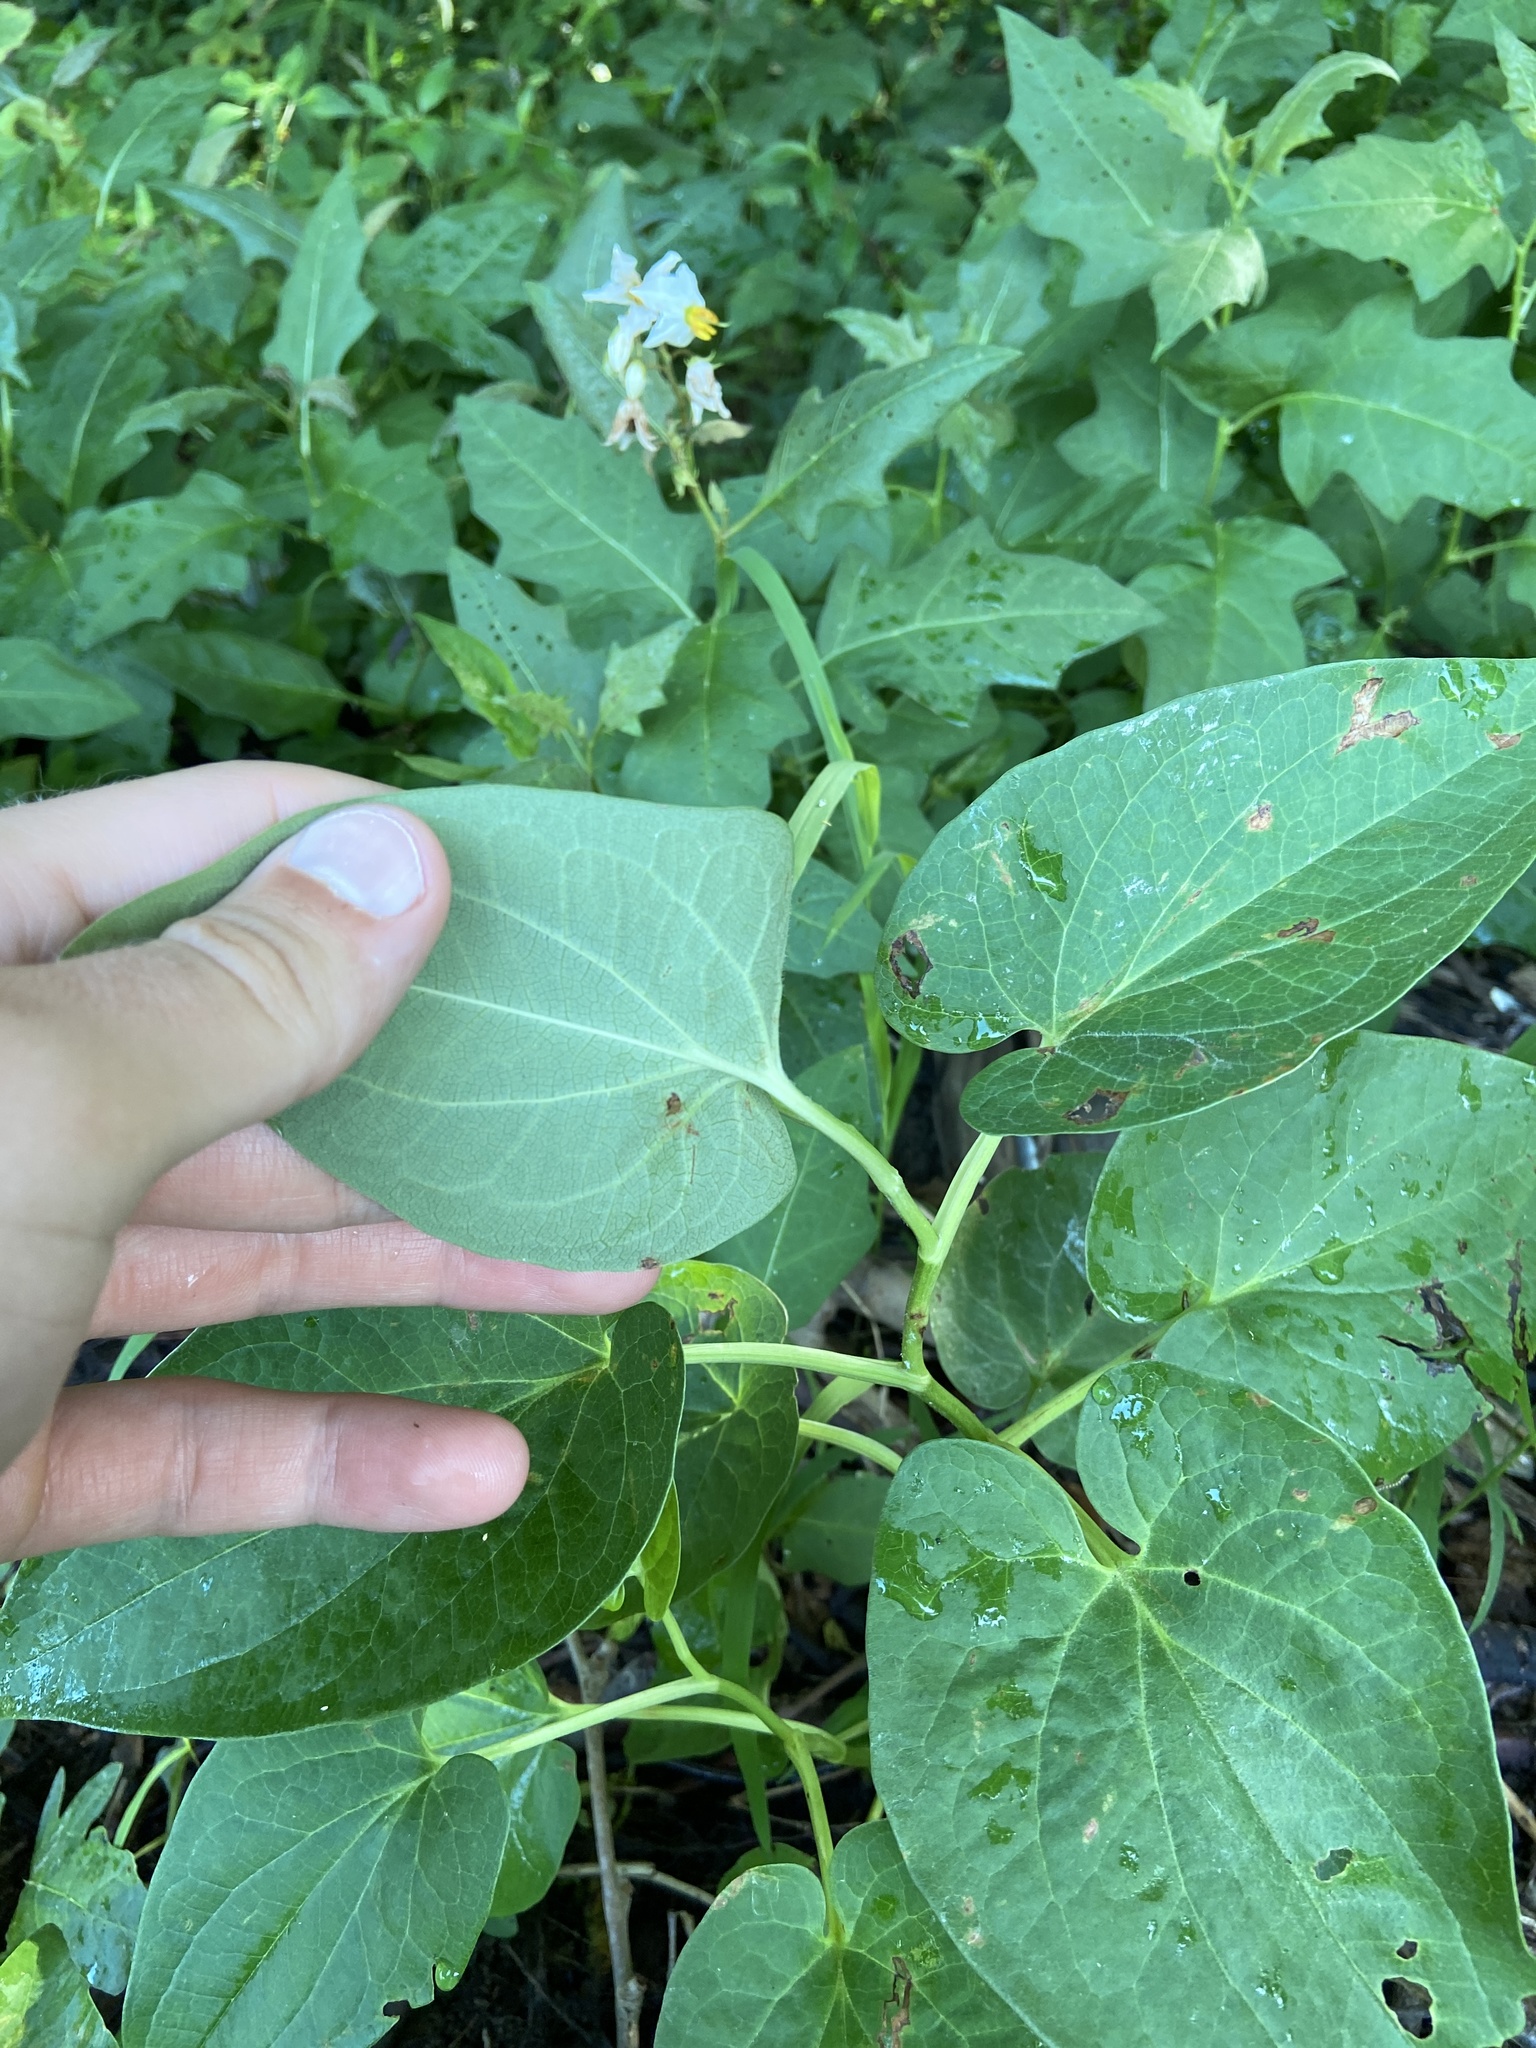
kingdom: Plantae
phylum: Tracheophyta
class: Magnoliopsida
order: Piperales
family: Saururaceae
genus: Saururus
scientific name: Saururus cernuus
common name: Lizard's-tail
